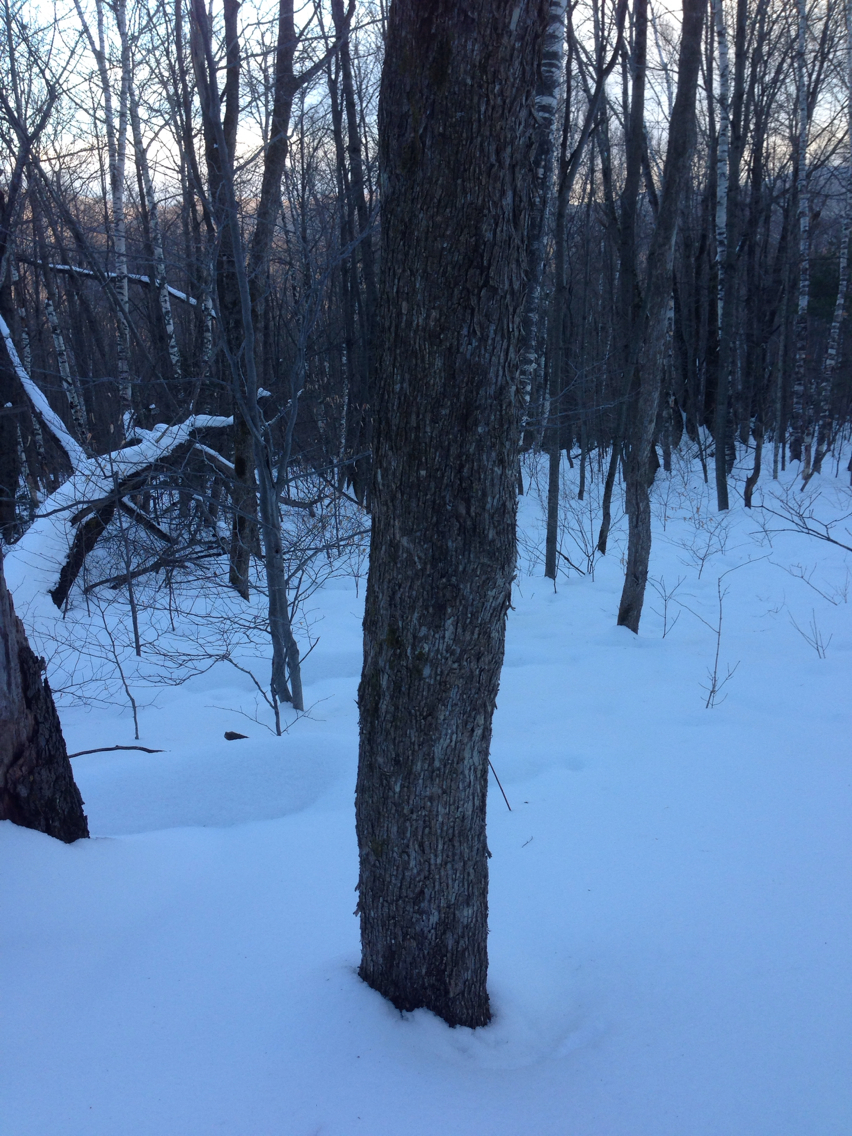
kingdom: Plantae
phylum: Tracheophyta
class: Magnoliopsida
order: Fagales
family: Betulaceae
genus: Ostrya
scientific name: Ostrya virginiana
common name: Ironwood
